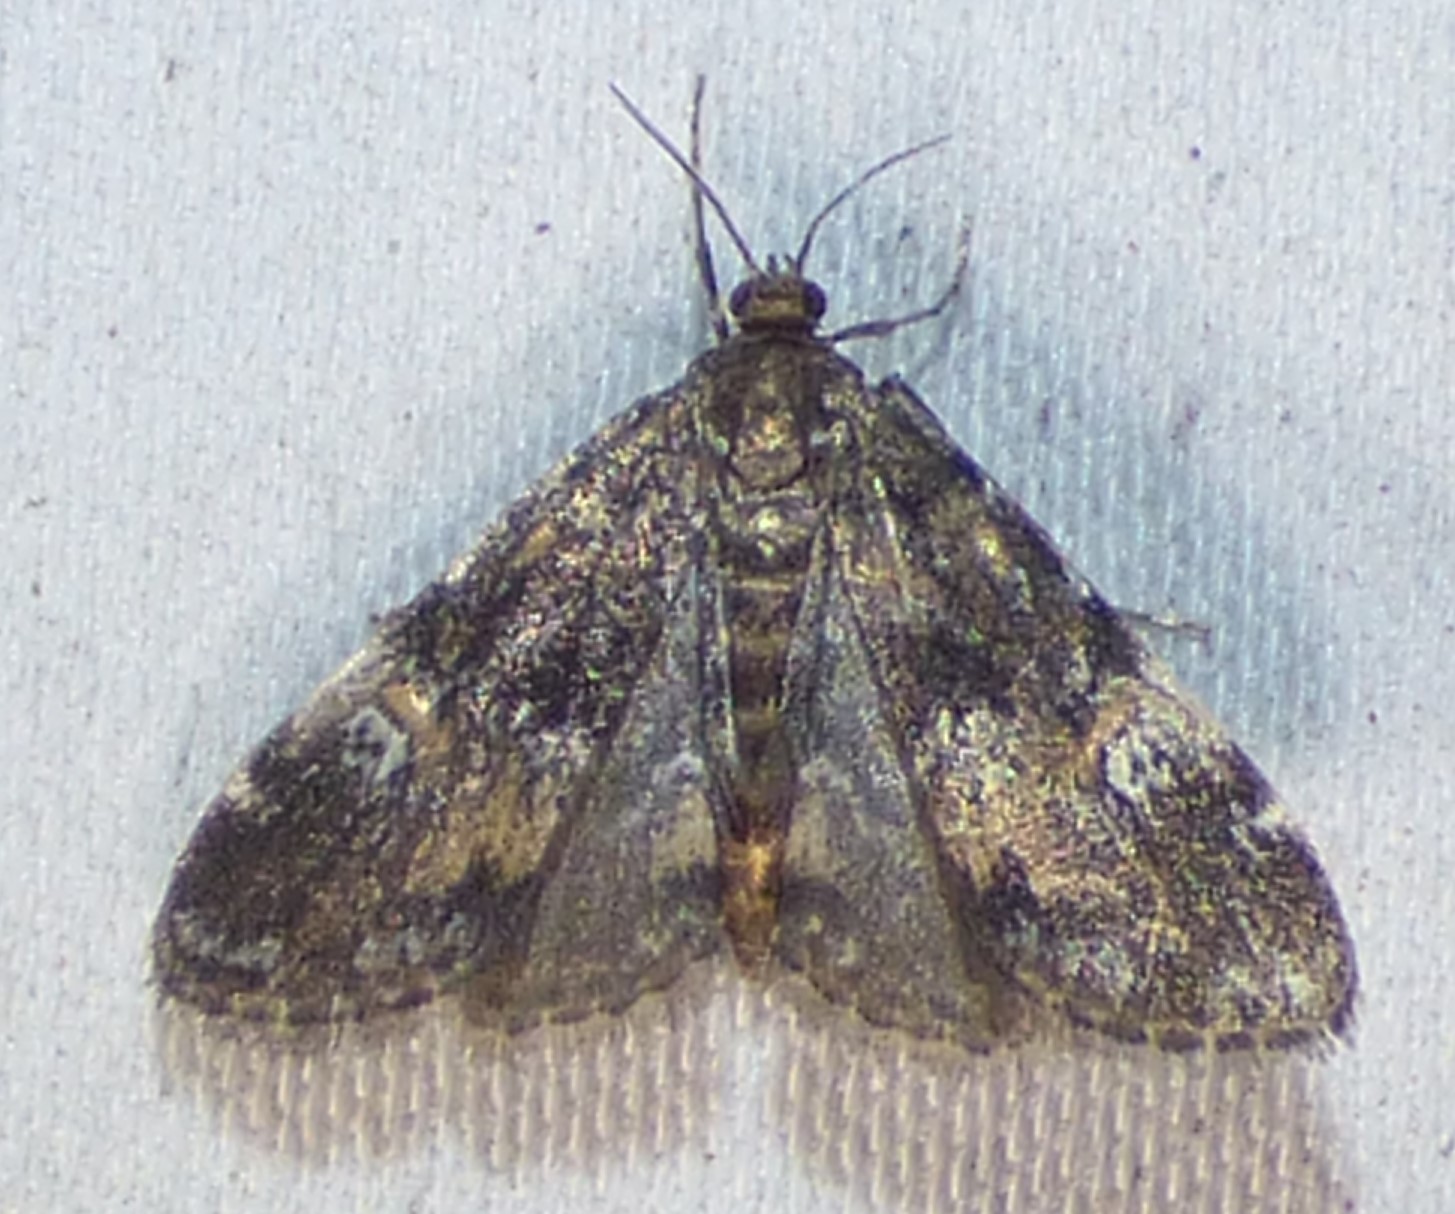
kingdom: Animalia
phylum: Arthropoda
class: Insecta
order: Lepidoptera
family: Crambidae
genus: Elophila
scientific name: Elophila obliteralis
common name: Waterlily leafcutter moth
